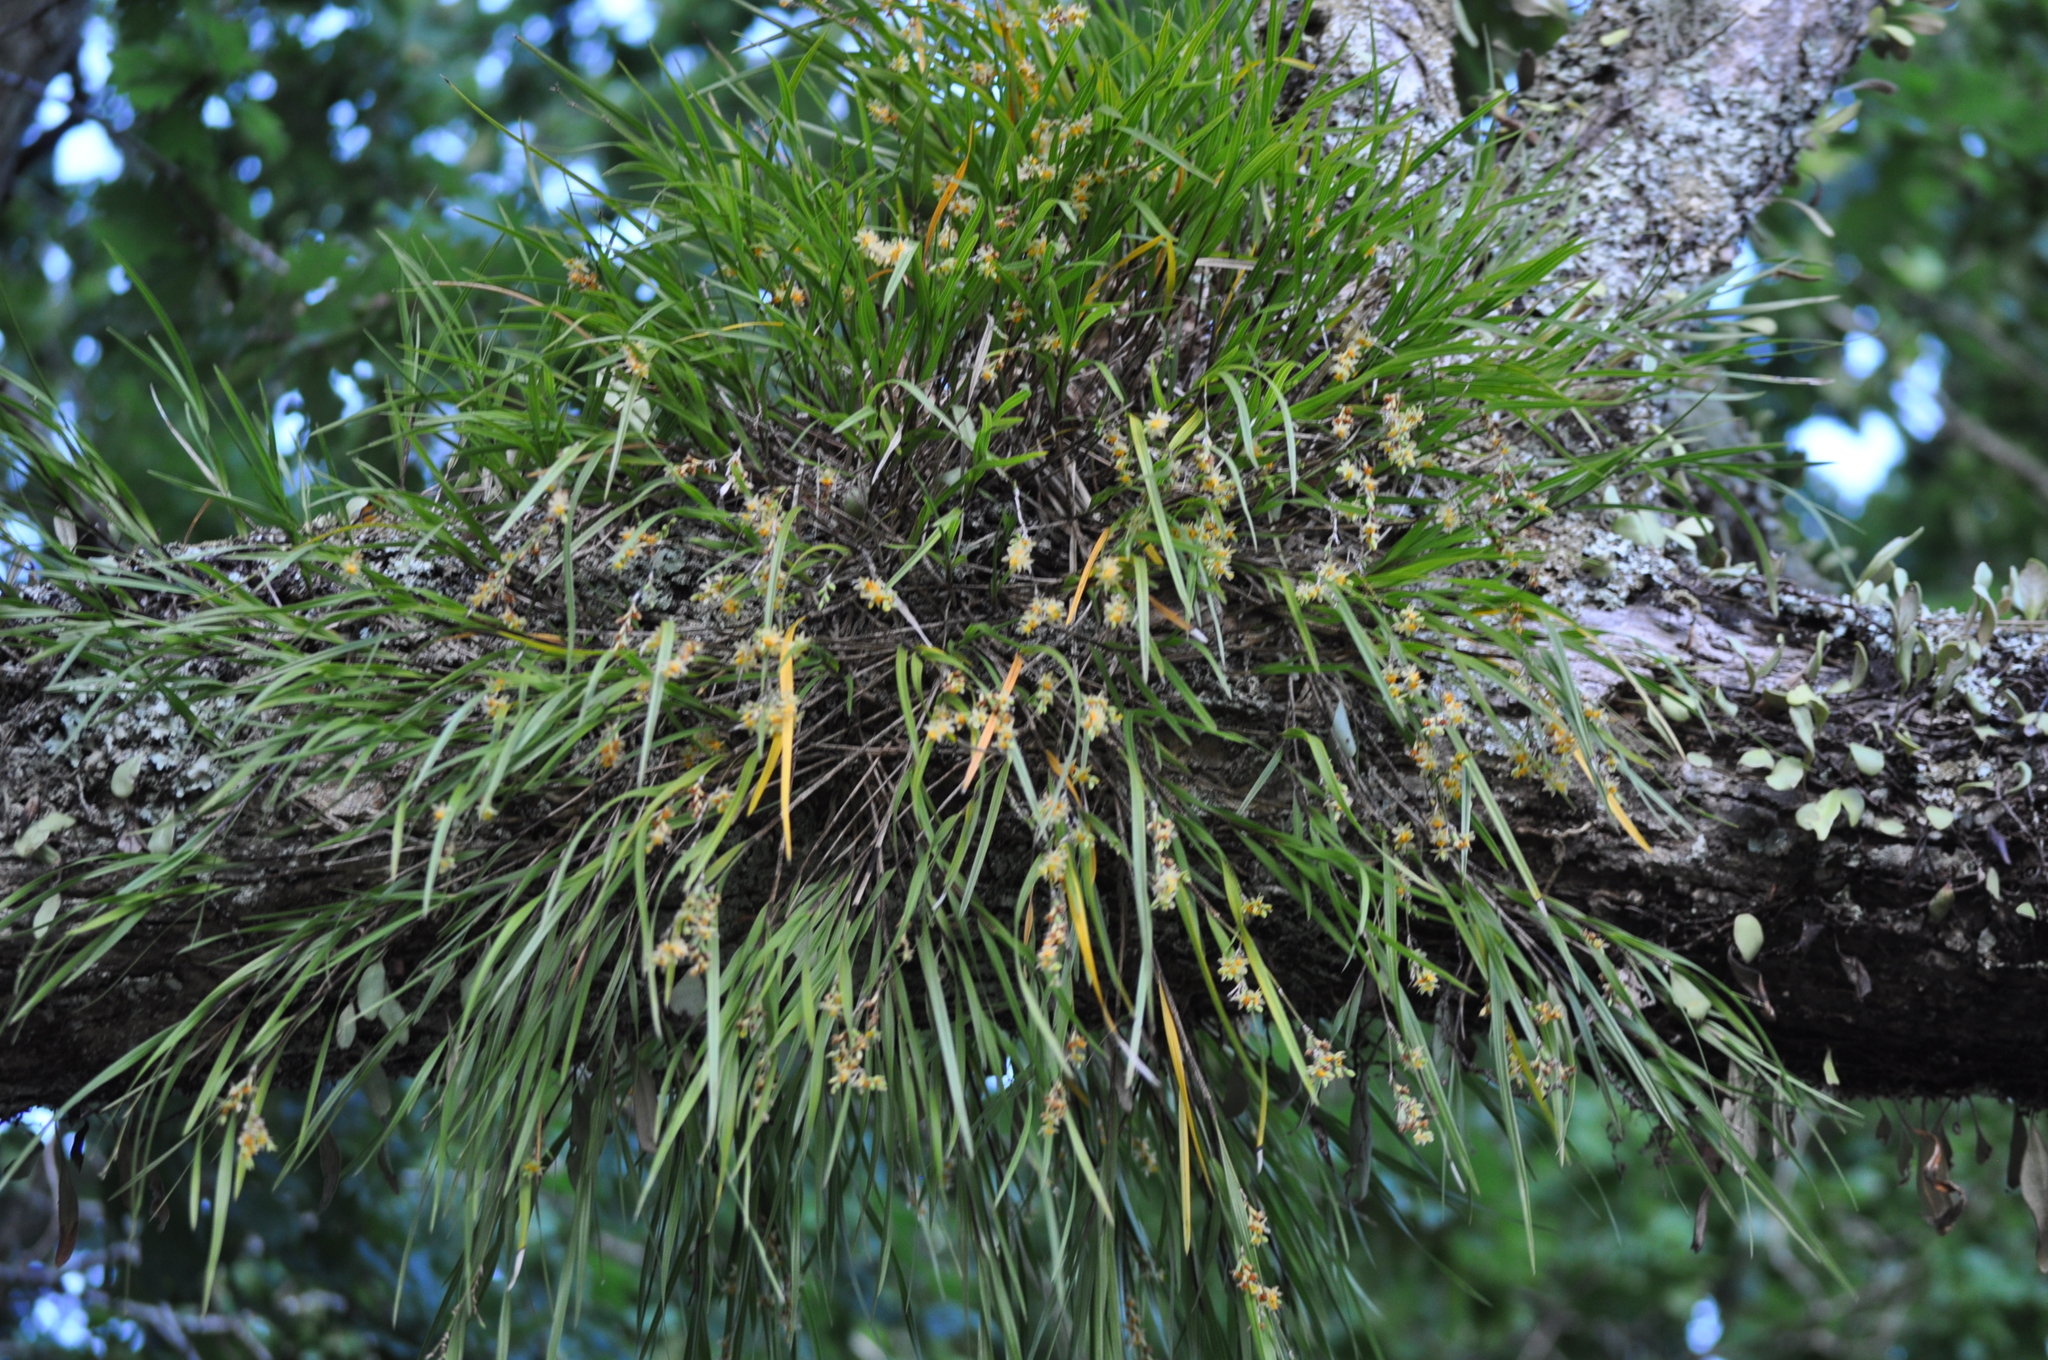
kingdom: Plantae
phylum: Tracheophyta
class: Liliopsida
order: Asparagales
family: Orchidaceae
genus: Earina
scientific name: Earina aestivalis
